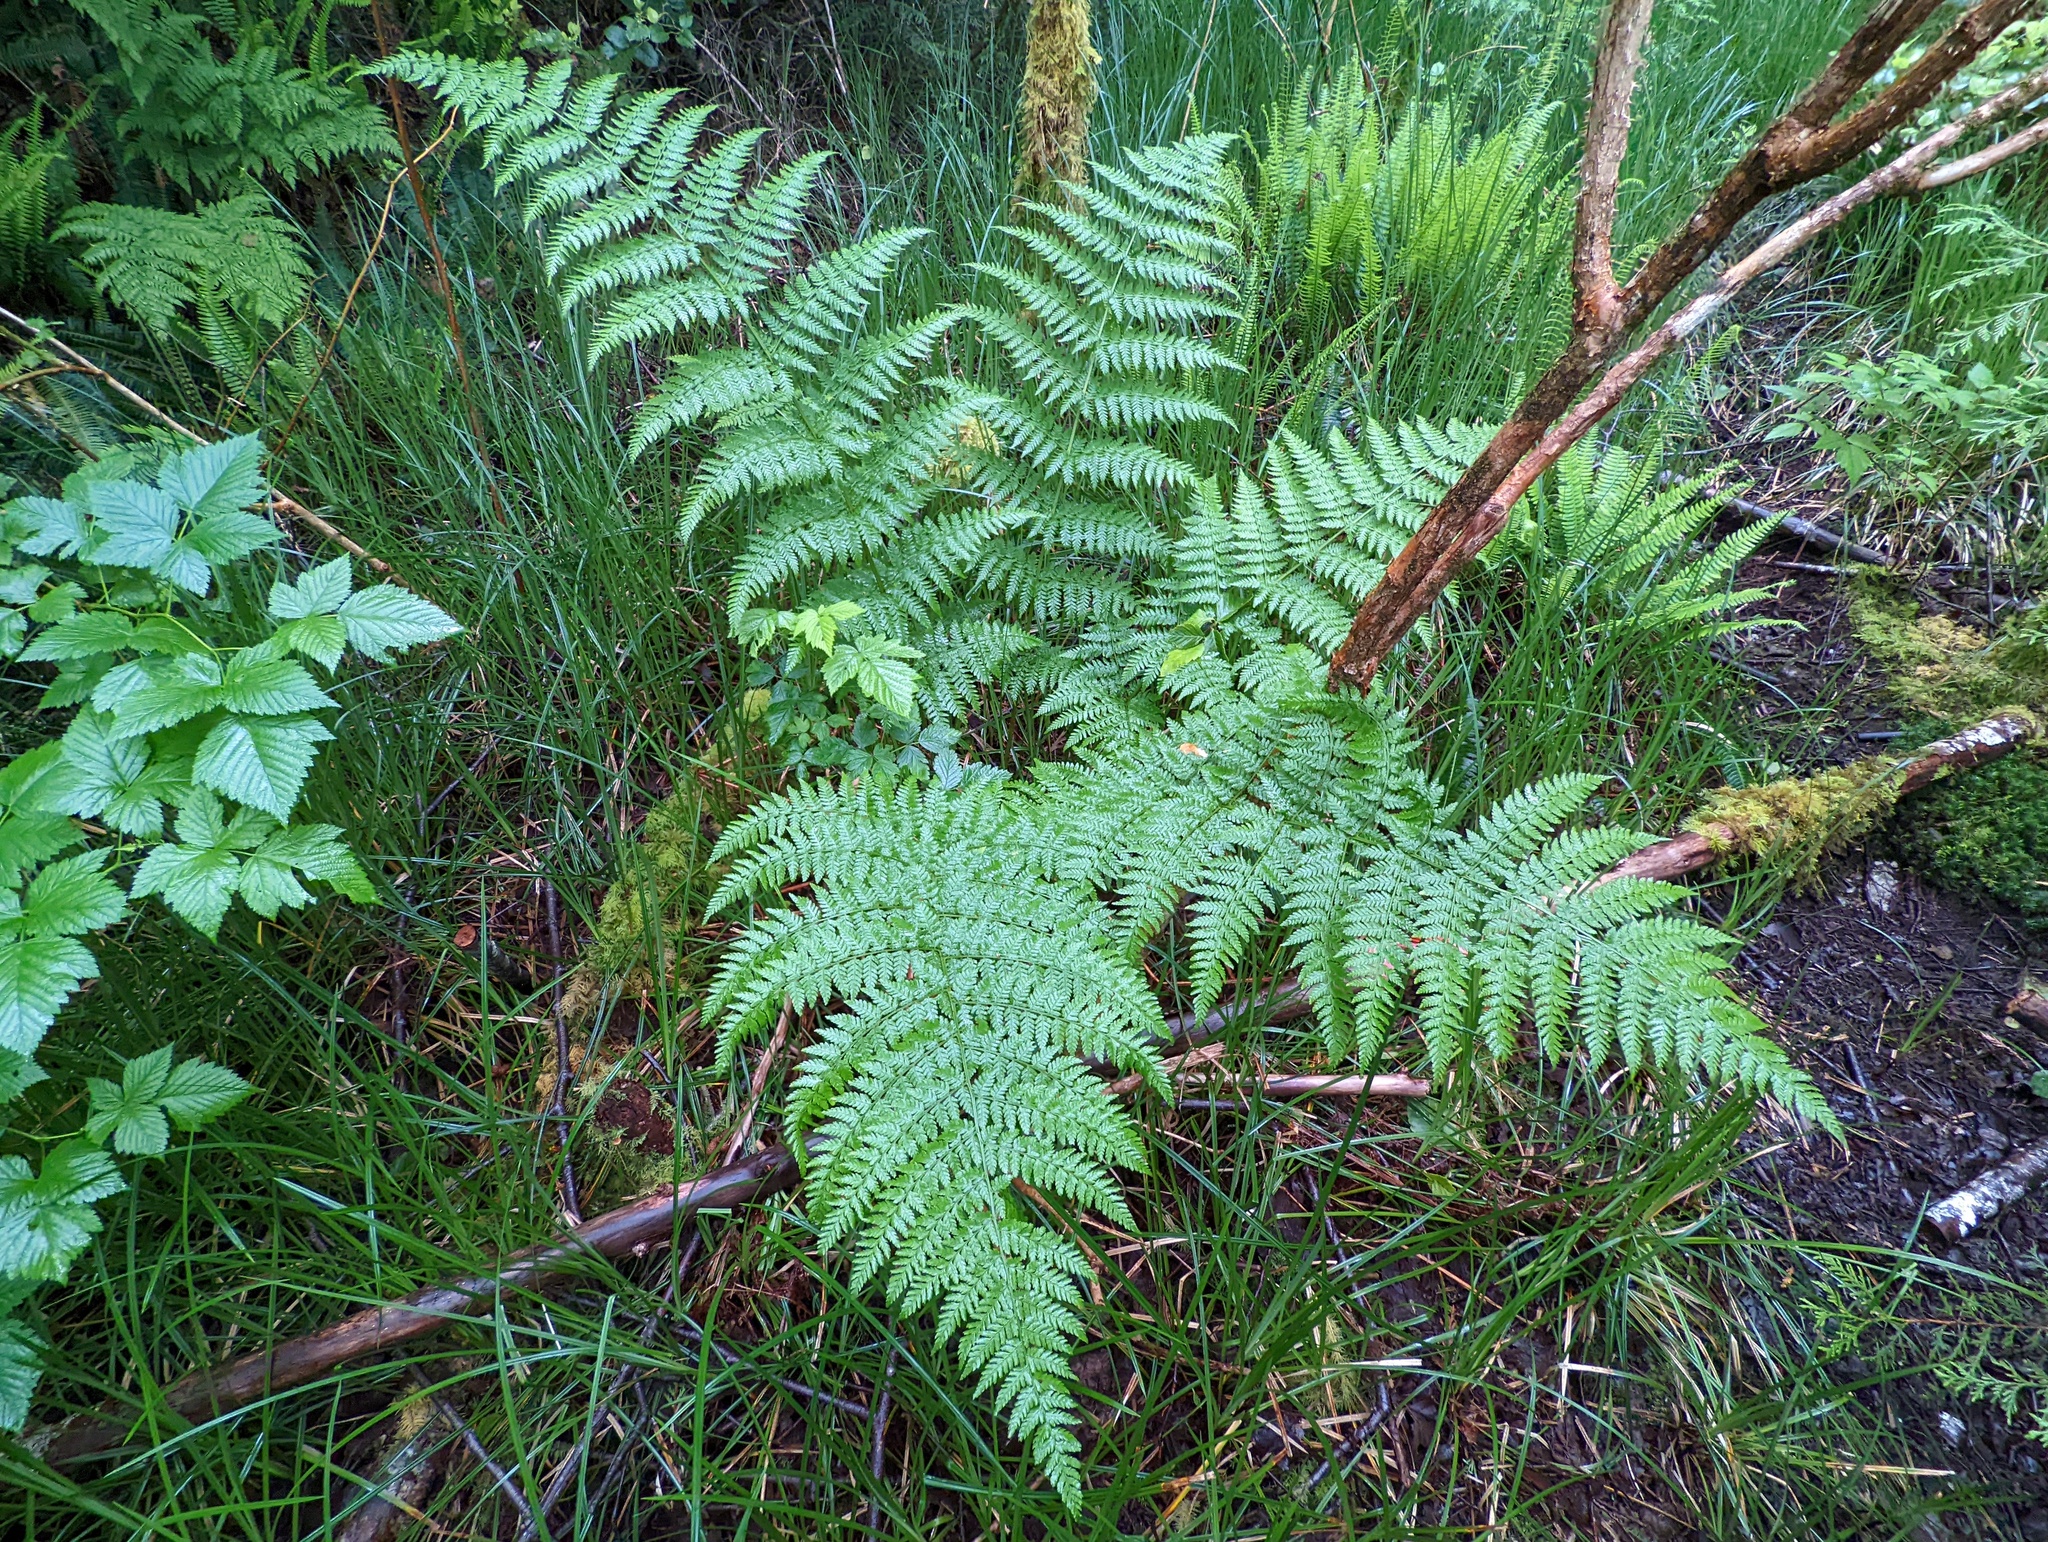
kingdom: Plantae
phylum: Tracheophyta
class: Polypodiopsida
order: Polypodiales
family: Dryopteridaceae
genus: Dryopteris
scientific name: Dryopteris expansa
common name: Northern buckler fern
